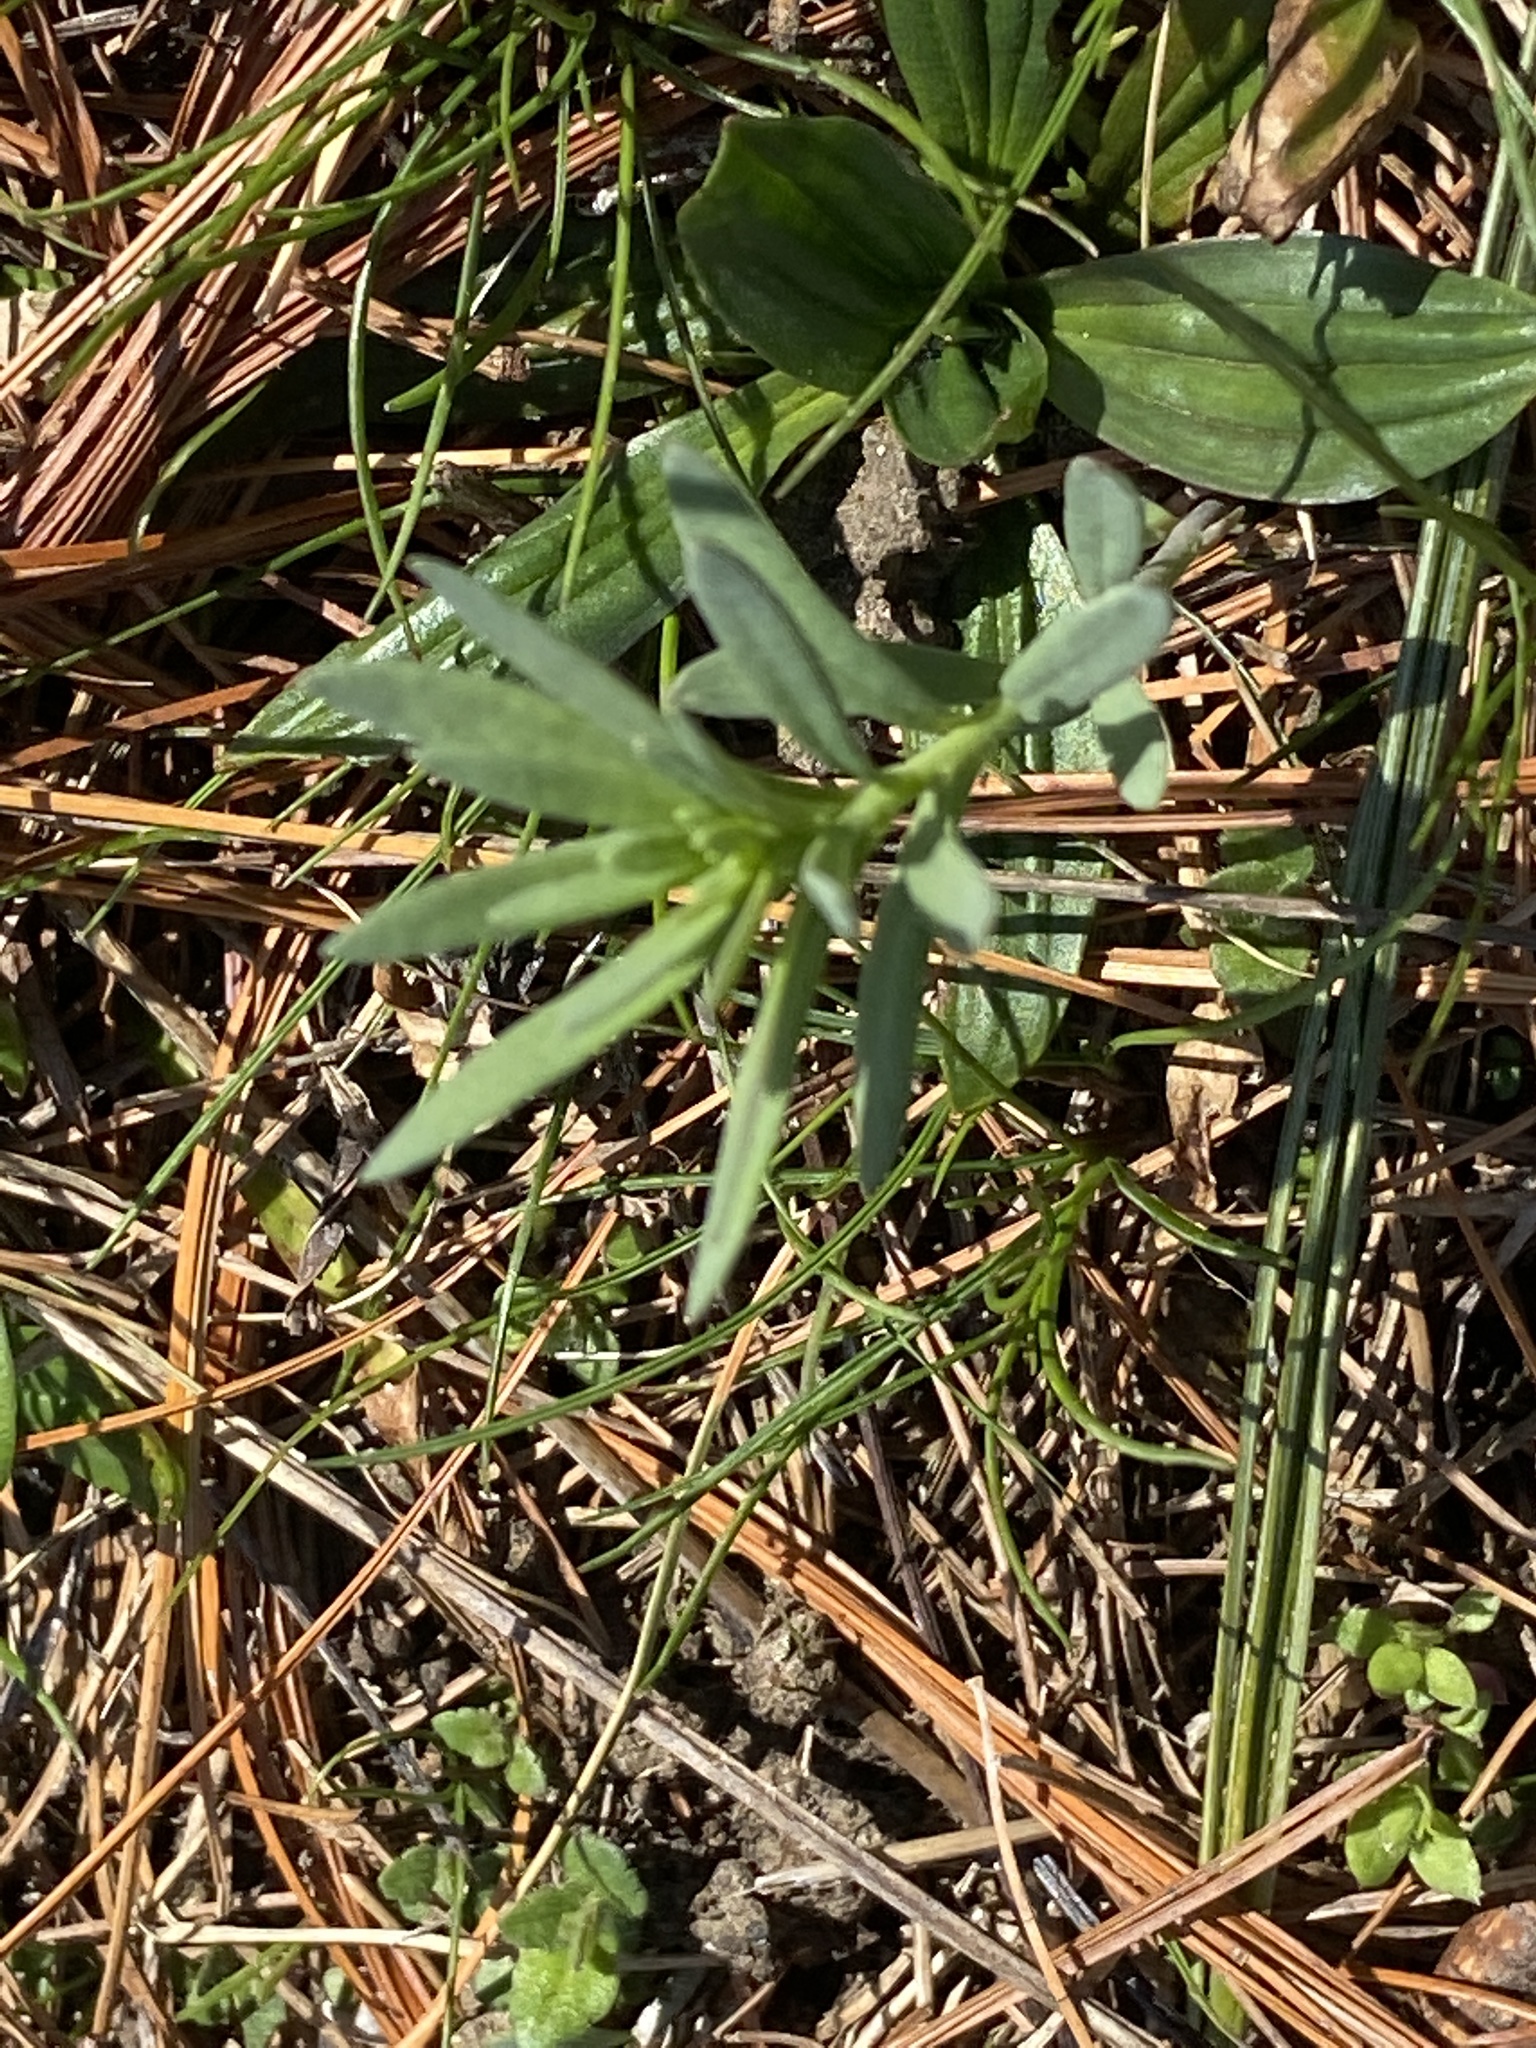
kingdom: Plantae
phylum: Tracheophyta
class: Magnoliopsida
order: Lamiales
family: Plantaginaceae
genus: Linaria
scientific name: Linaria vulgaris
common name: Butter and eggs
